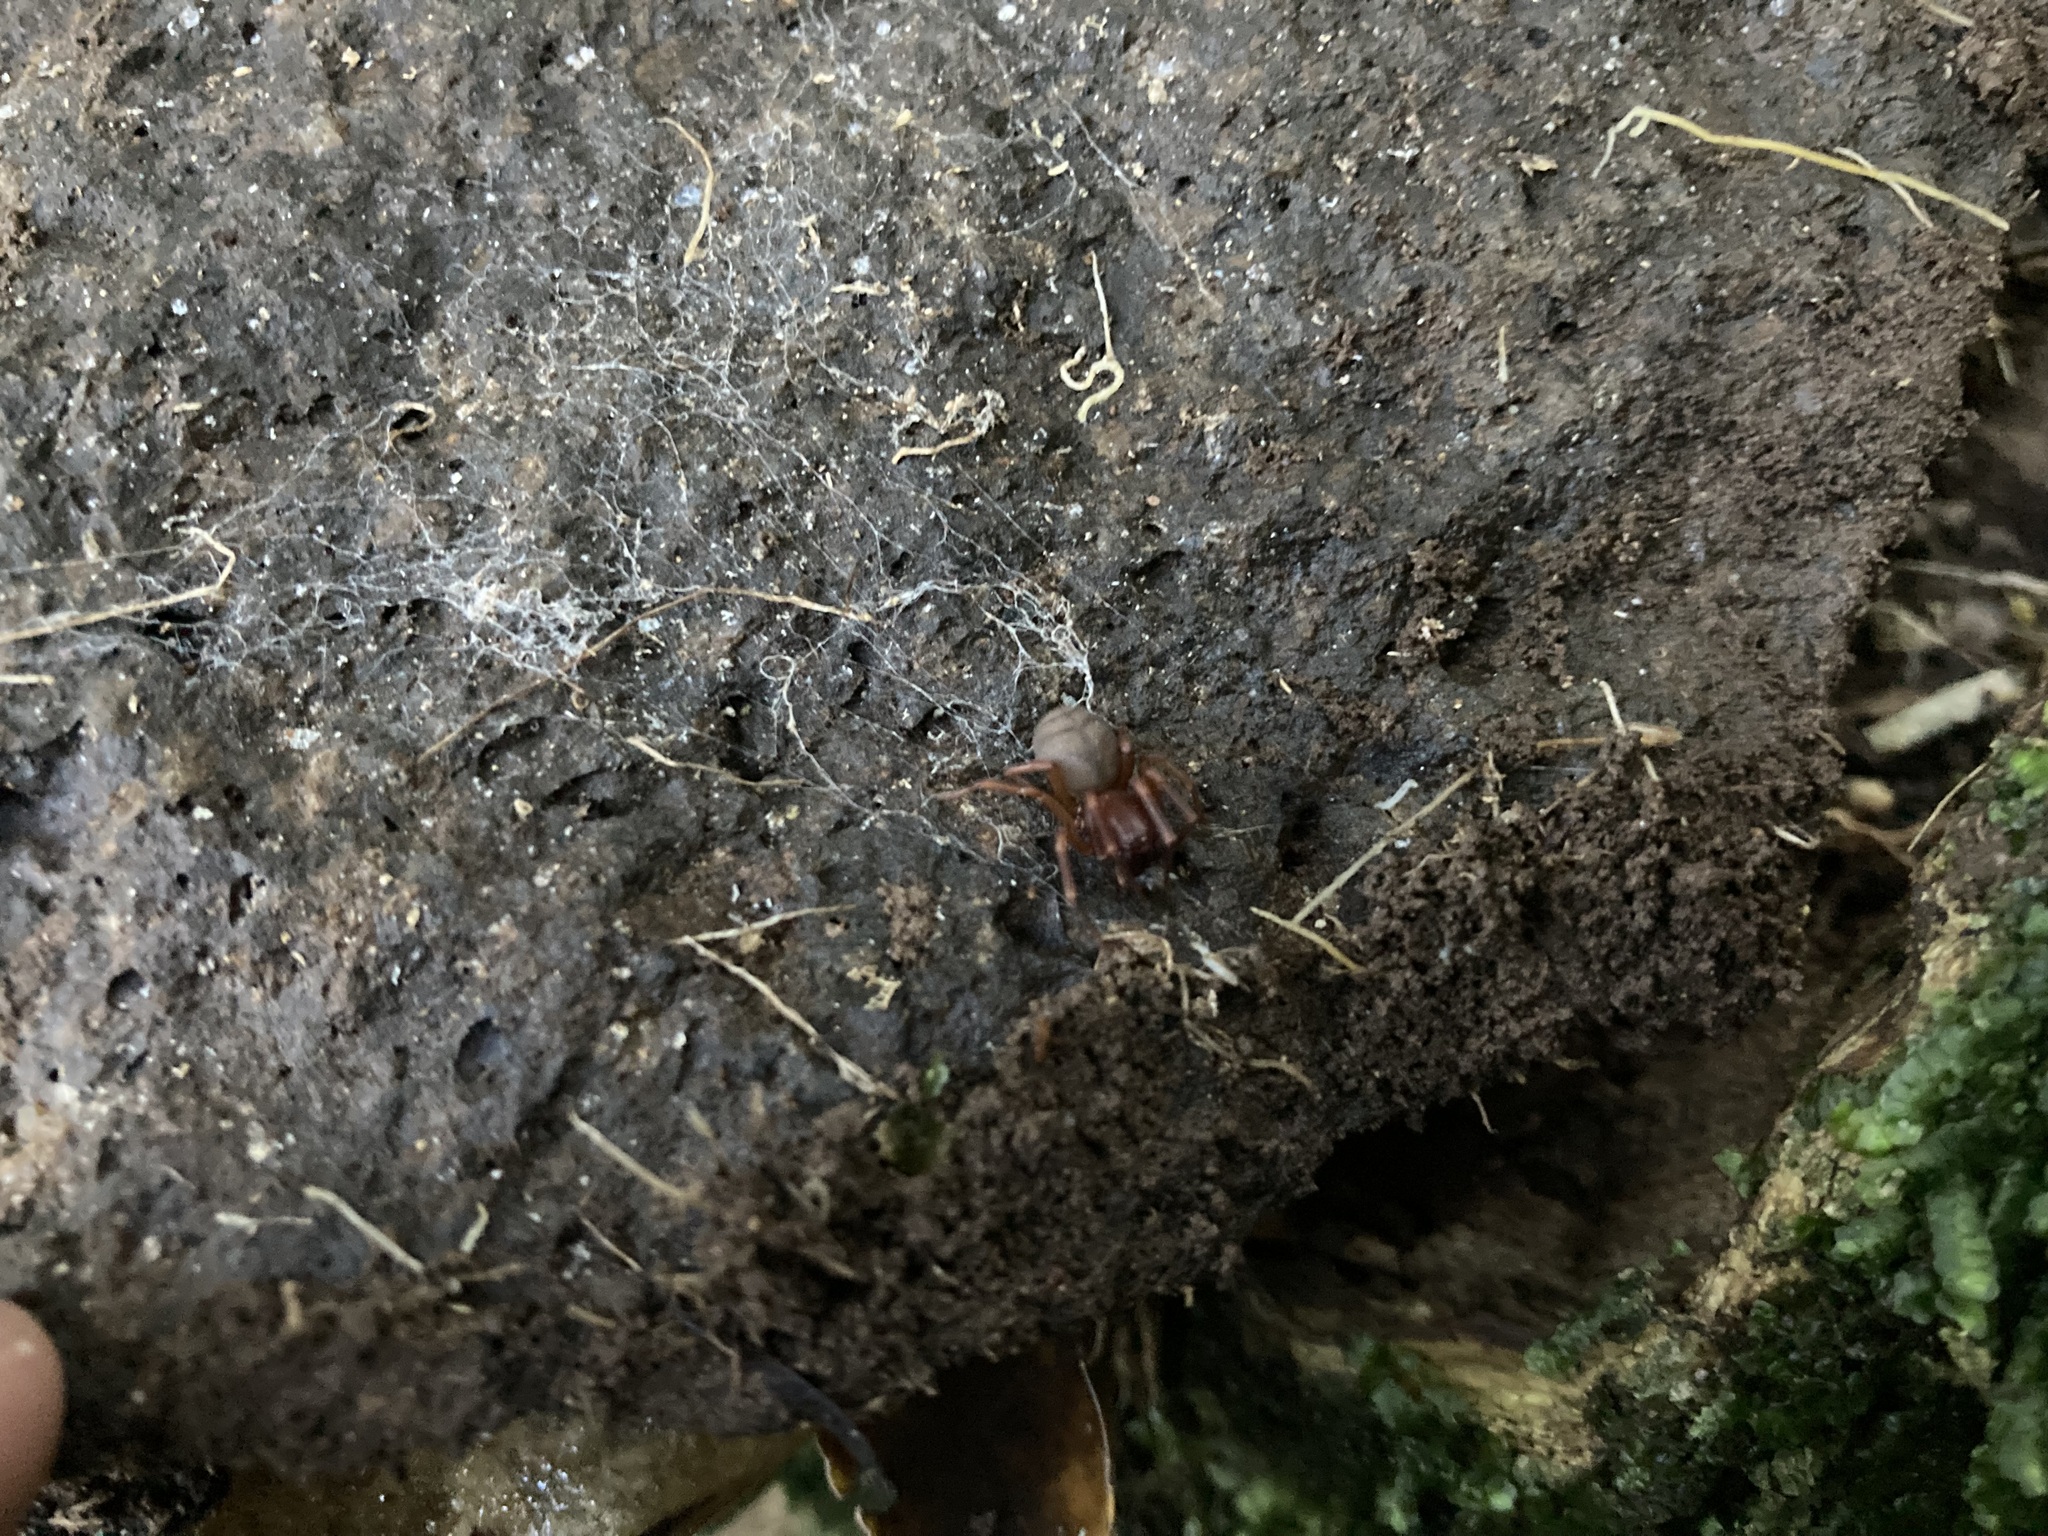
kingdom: Animalia
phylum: Arthropoda
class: Arachnida
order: Araneae
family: Periegopidae
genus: Periegops
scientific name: Periegops suterii
